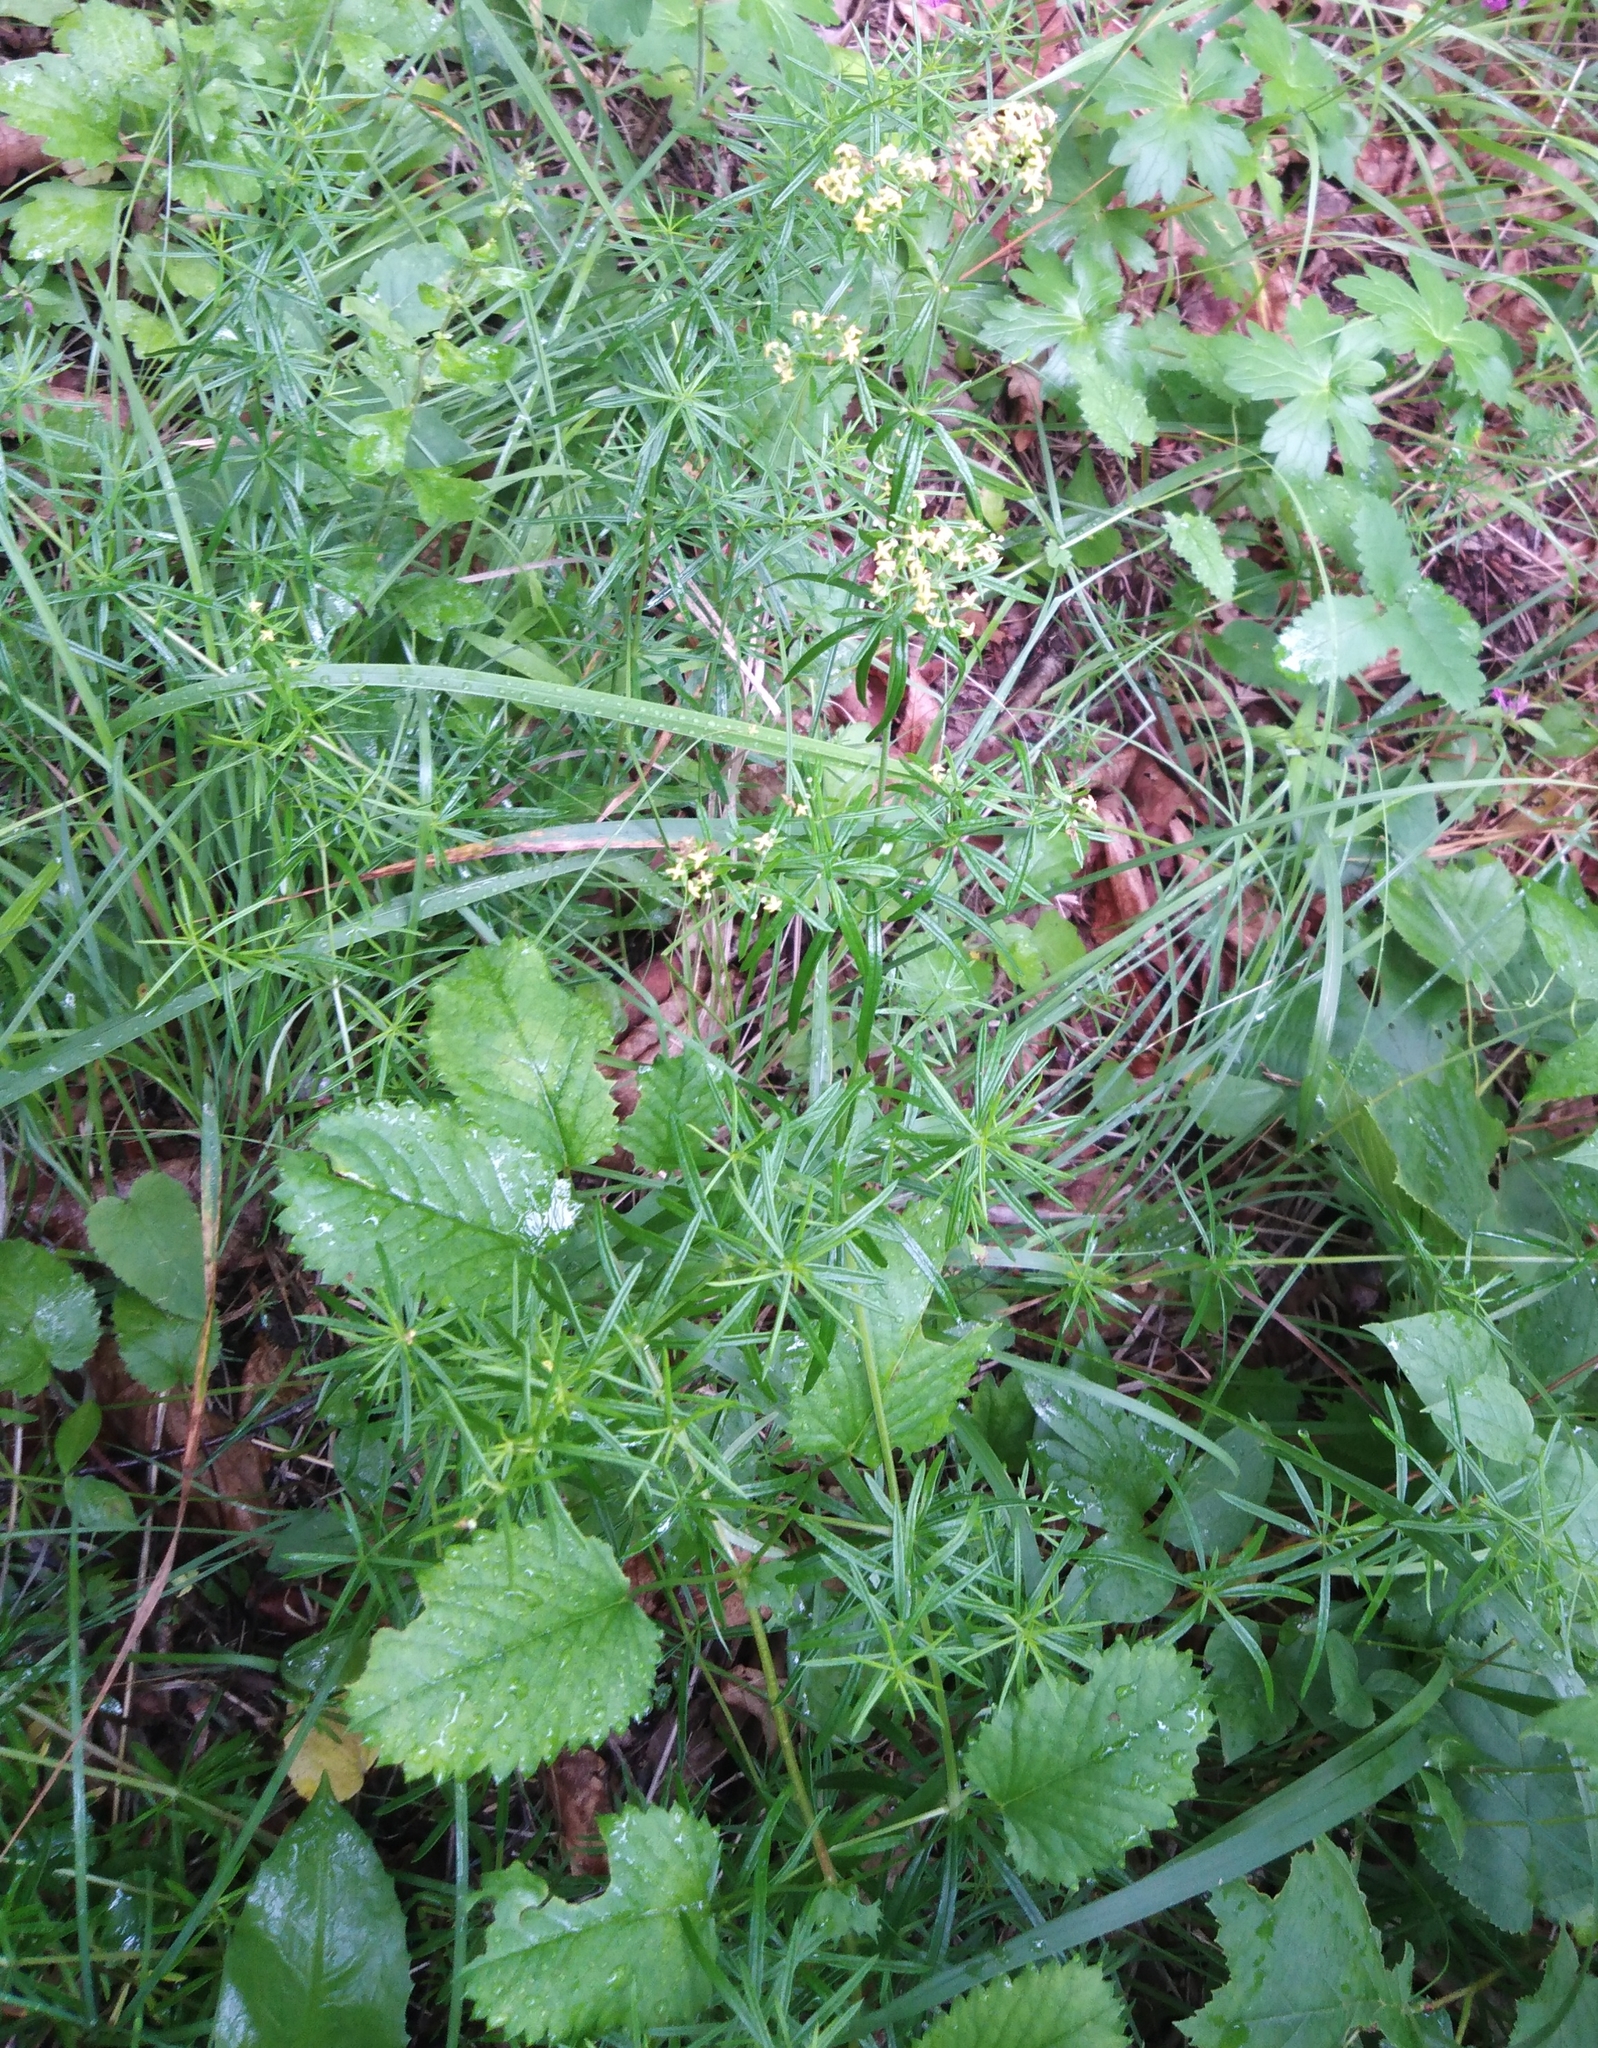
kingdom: Plantae
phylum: Tracheophyta
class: Magnoliopsida
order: Gentianales
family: Rubiaceae
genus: Galium
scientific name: Galium verum
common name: Lady's bedstraw
